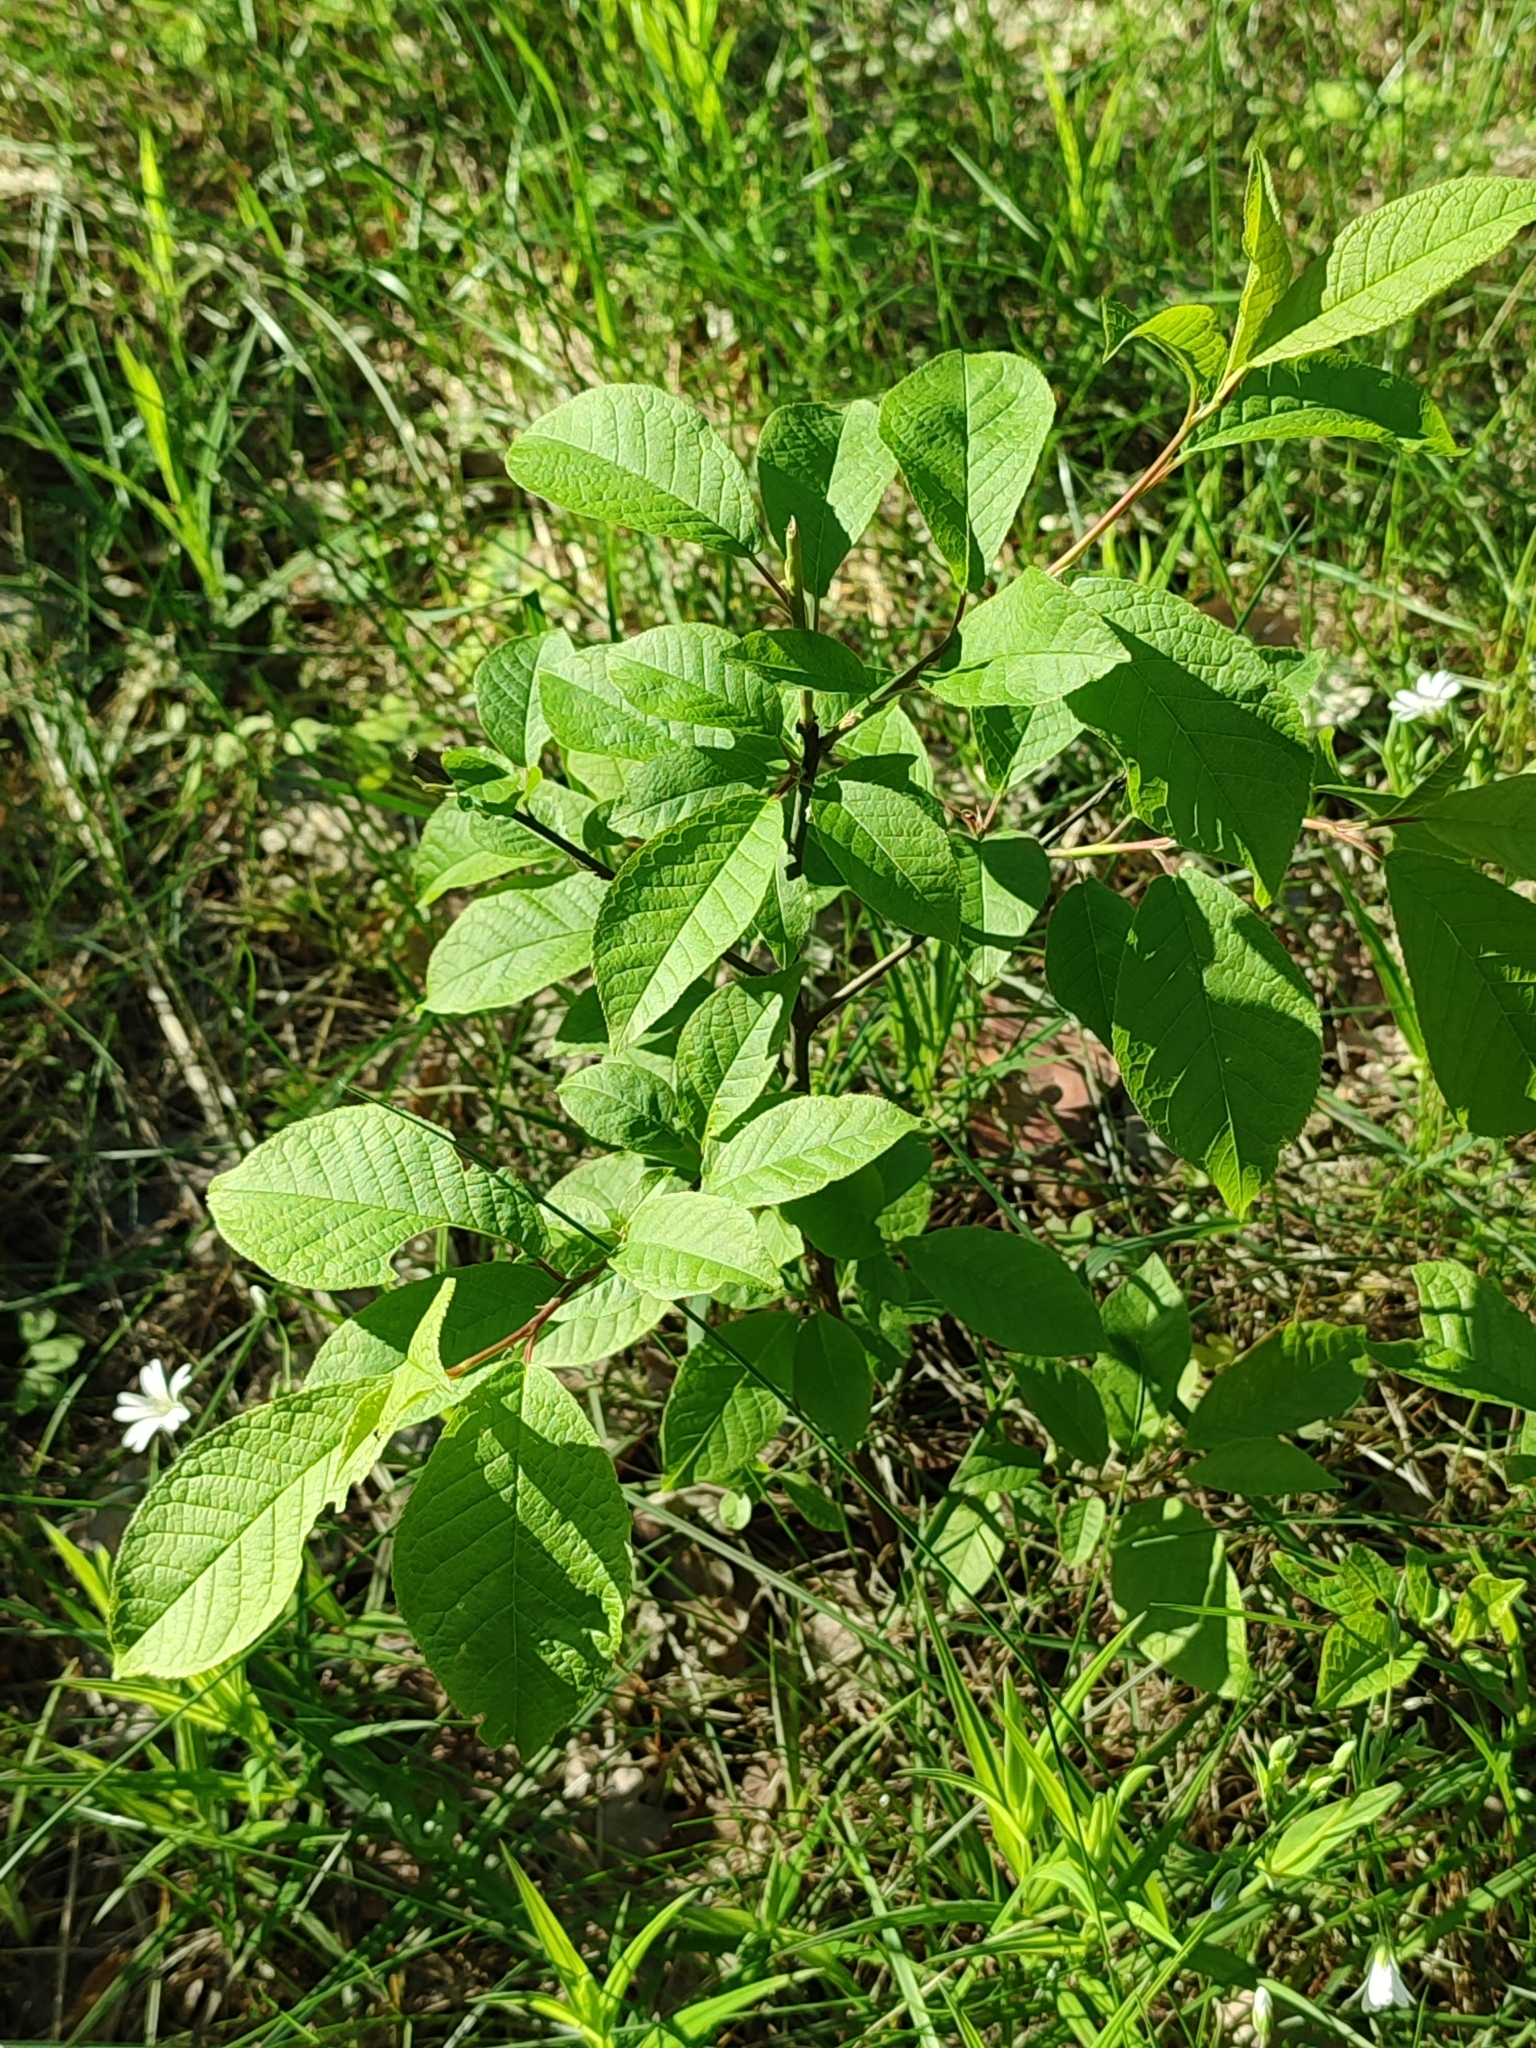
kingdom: Plantae
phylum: Tracheophyta
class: Magnoliopsida
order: Rosales
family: Rosaceae
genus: Prunus
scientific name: Prunus padus
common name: Bird cherry
